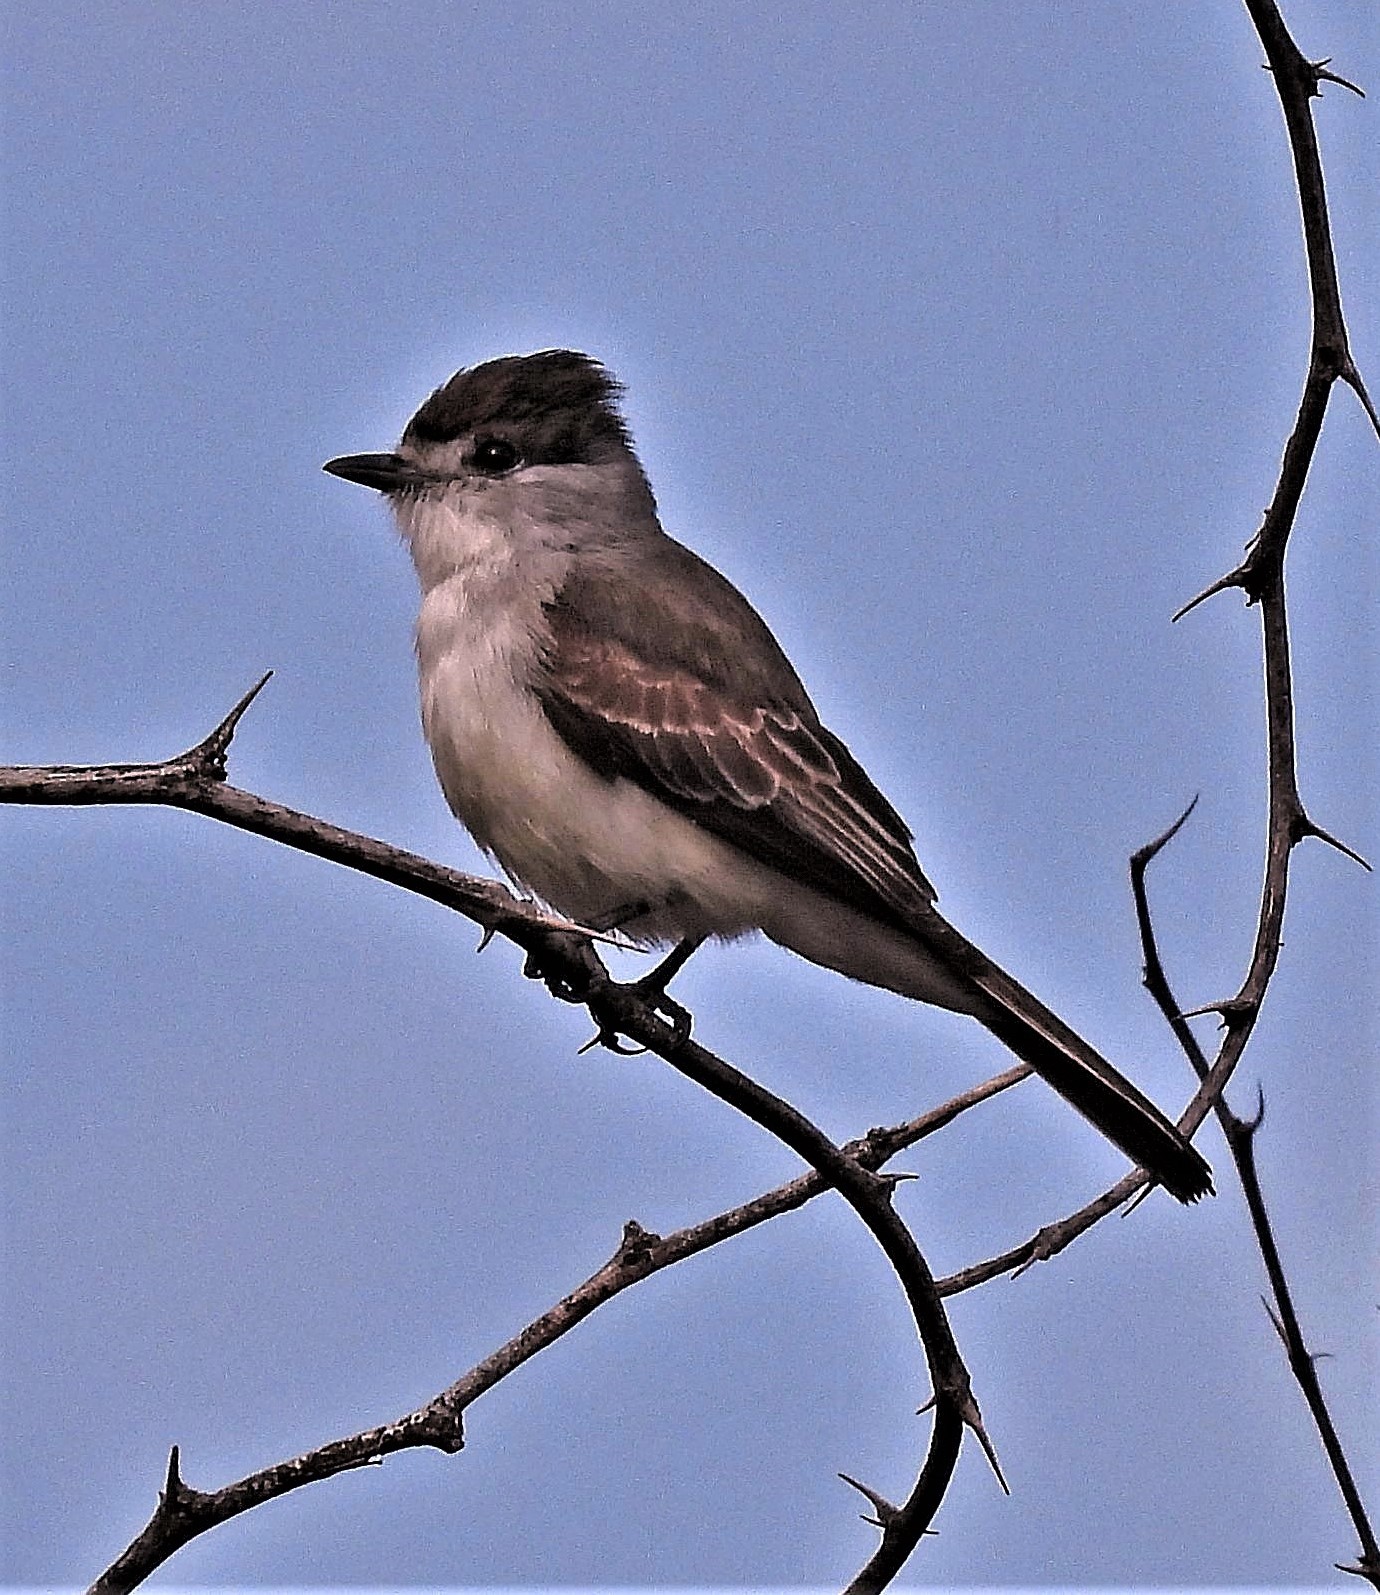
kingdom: Animalia
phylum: Chordata
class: Aves
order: Passeriformes
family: Cotingidae
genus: Xenopsaris
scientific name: Xenopsaris albinucha
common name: White-naped xenopsaris
